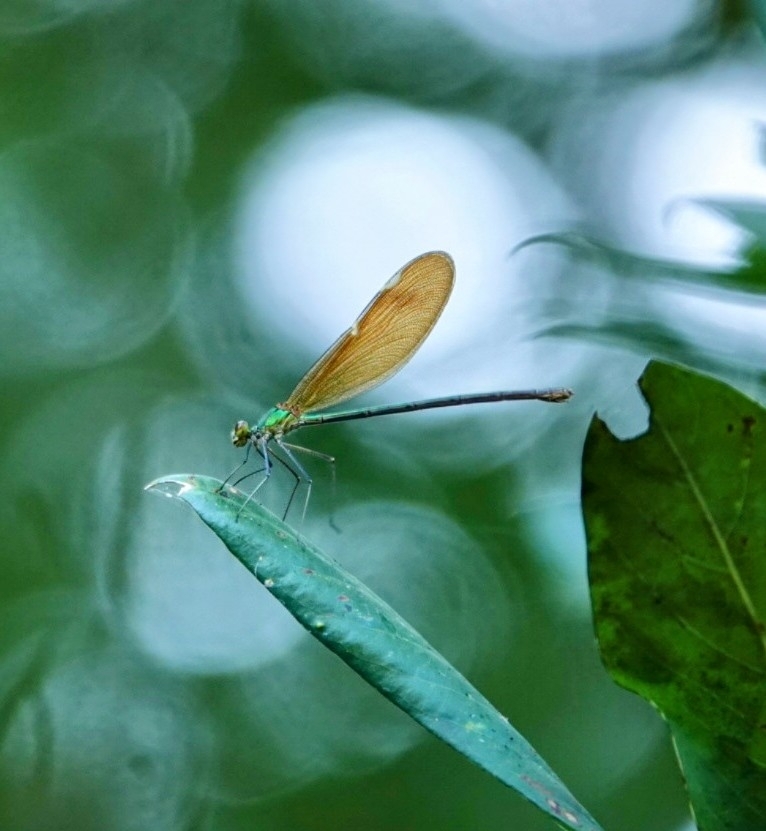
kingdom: Animalia
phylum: Arthropoda
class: Insecta
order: Odonata
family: Calopterygidae
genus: Neurobasis
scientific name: Neurobasis chinensis
